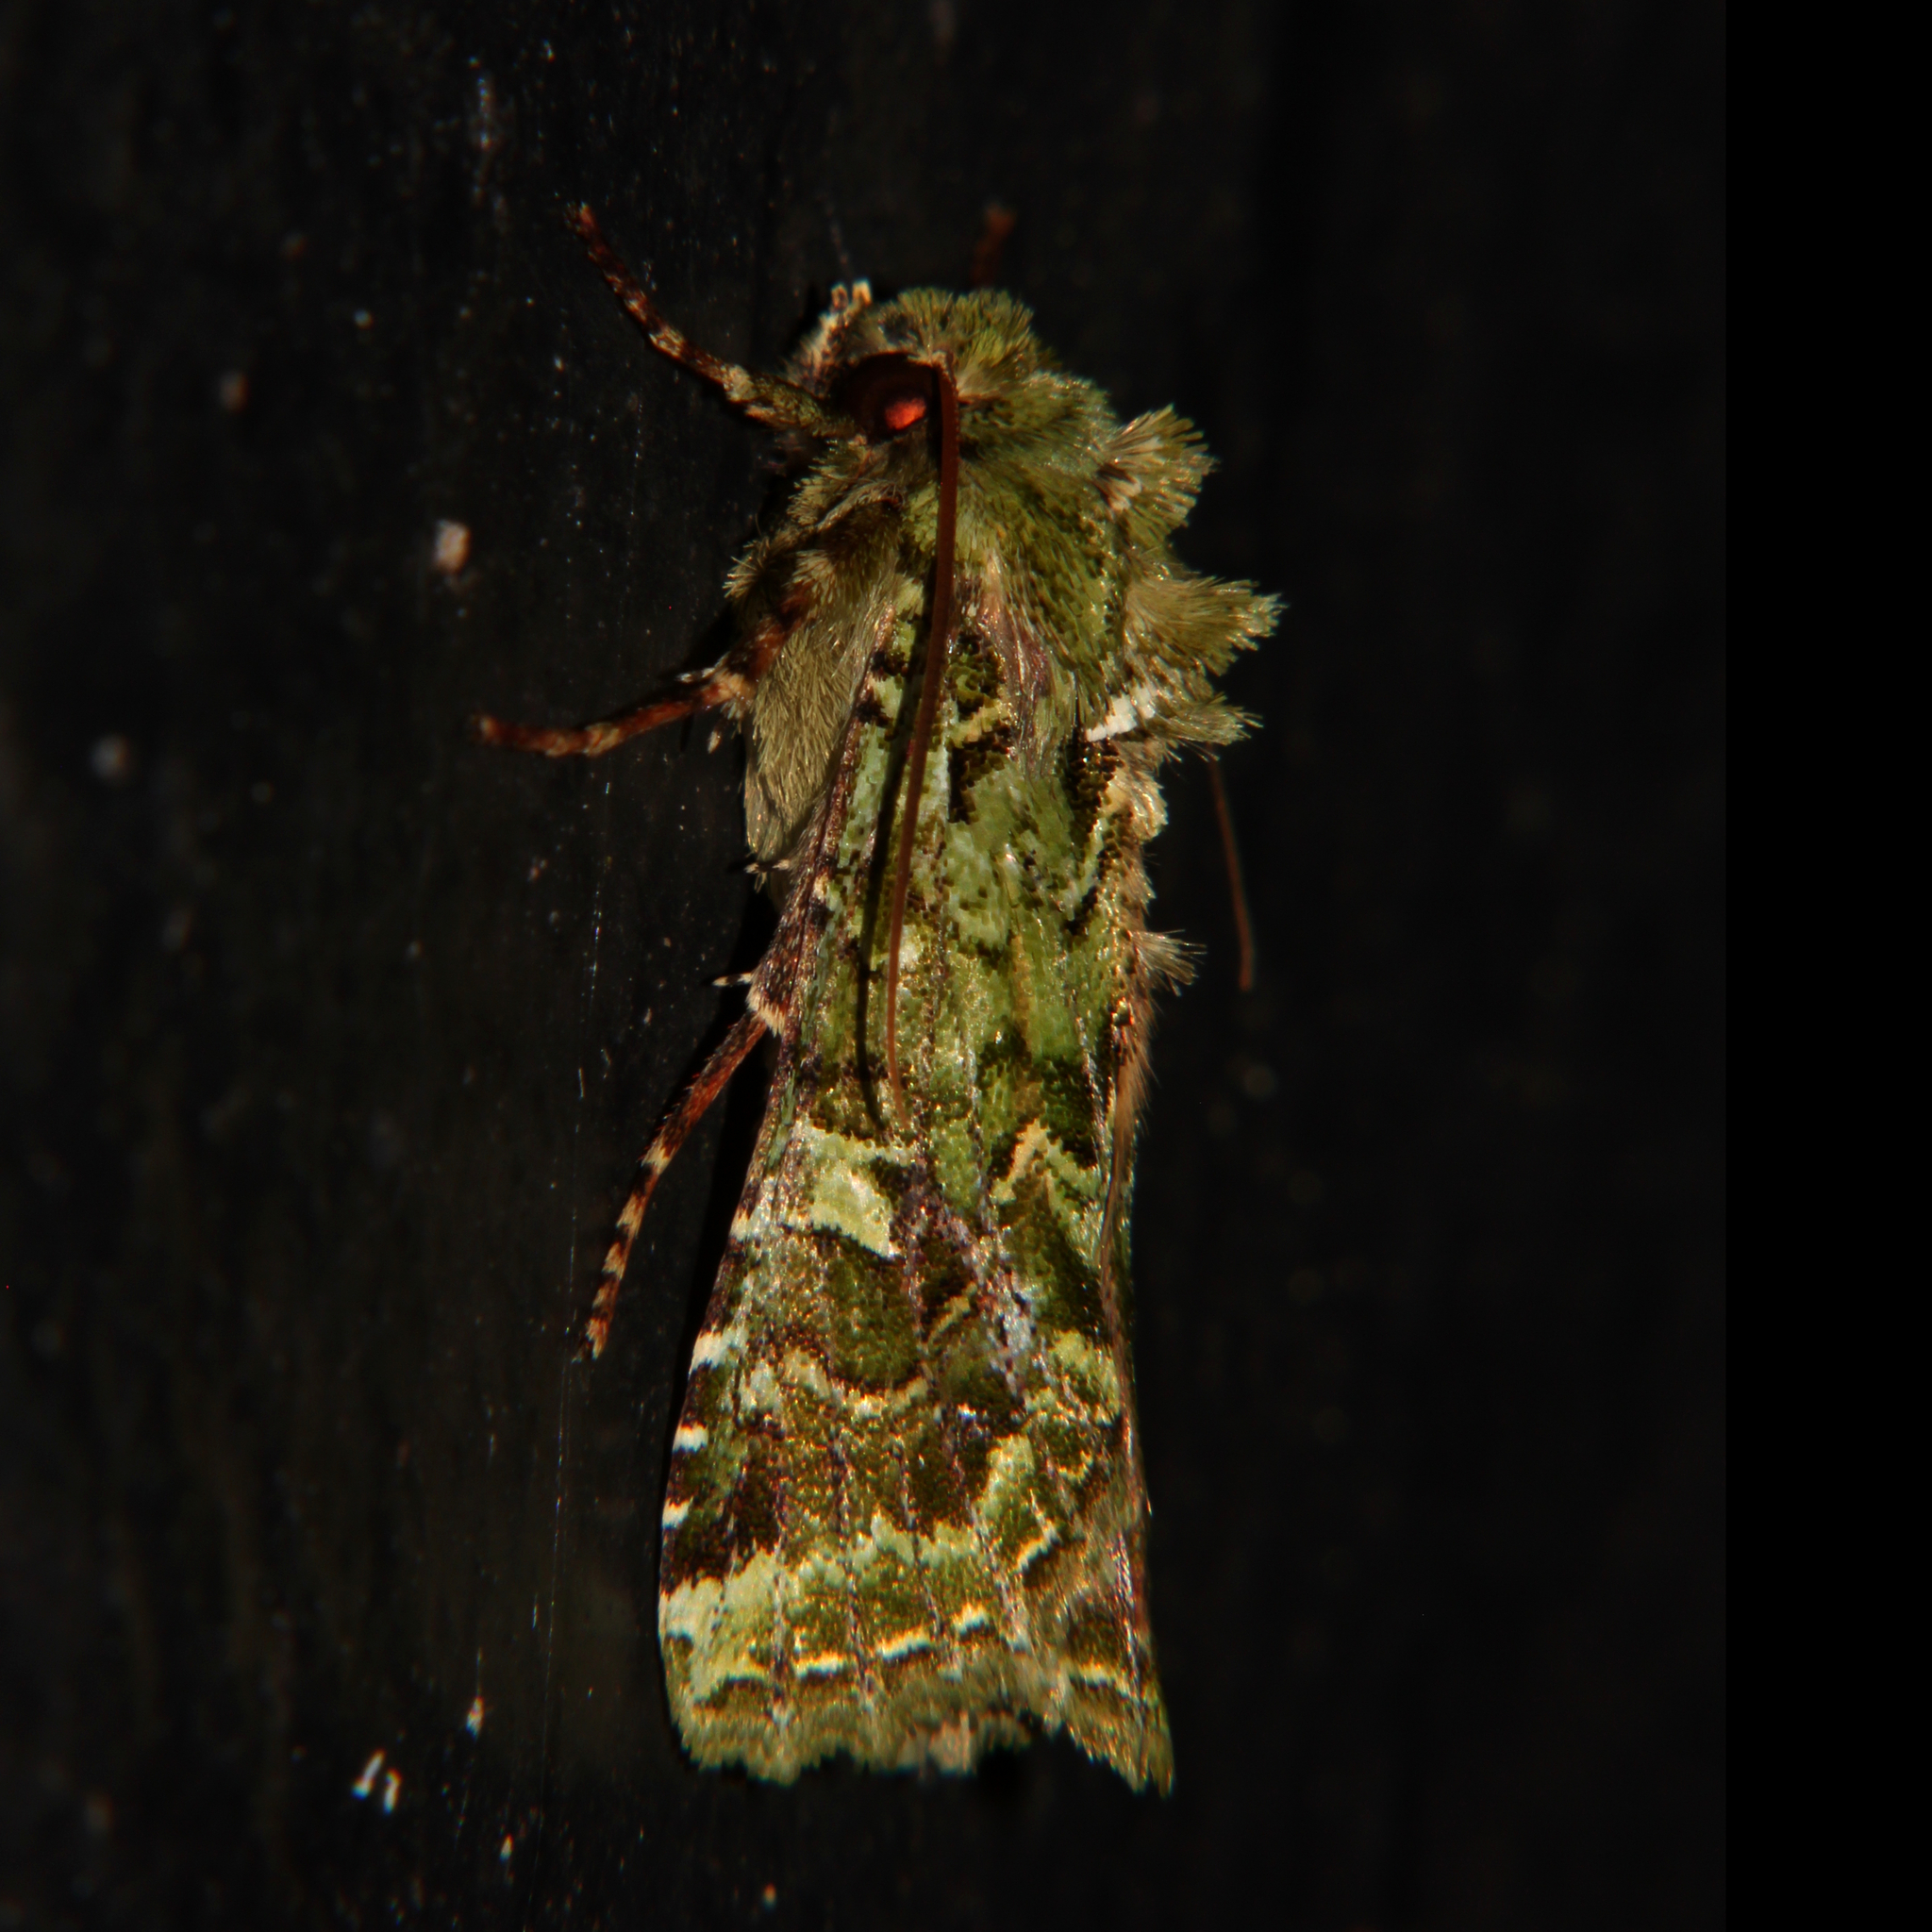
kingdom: Animalia
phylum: Arthropoda
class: Insecta
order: Lepidoptera
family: Noctuidae
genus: Feredayia
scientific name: Feredayia grammosa
